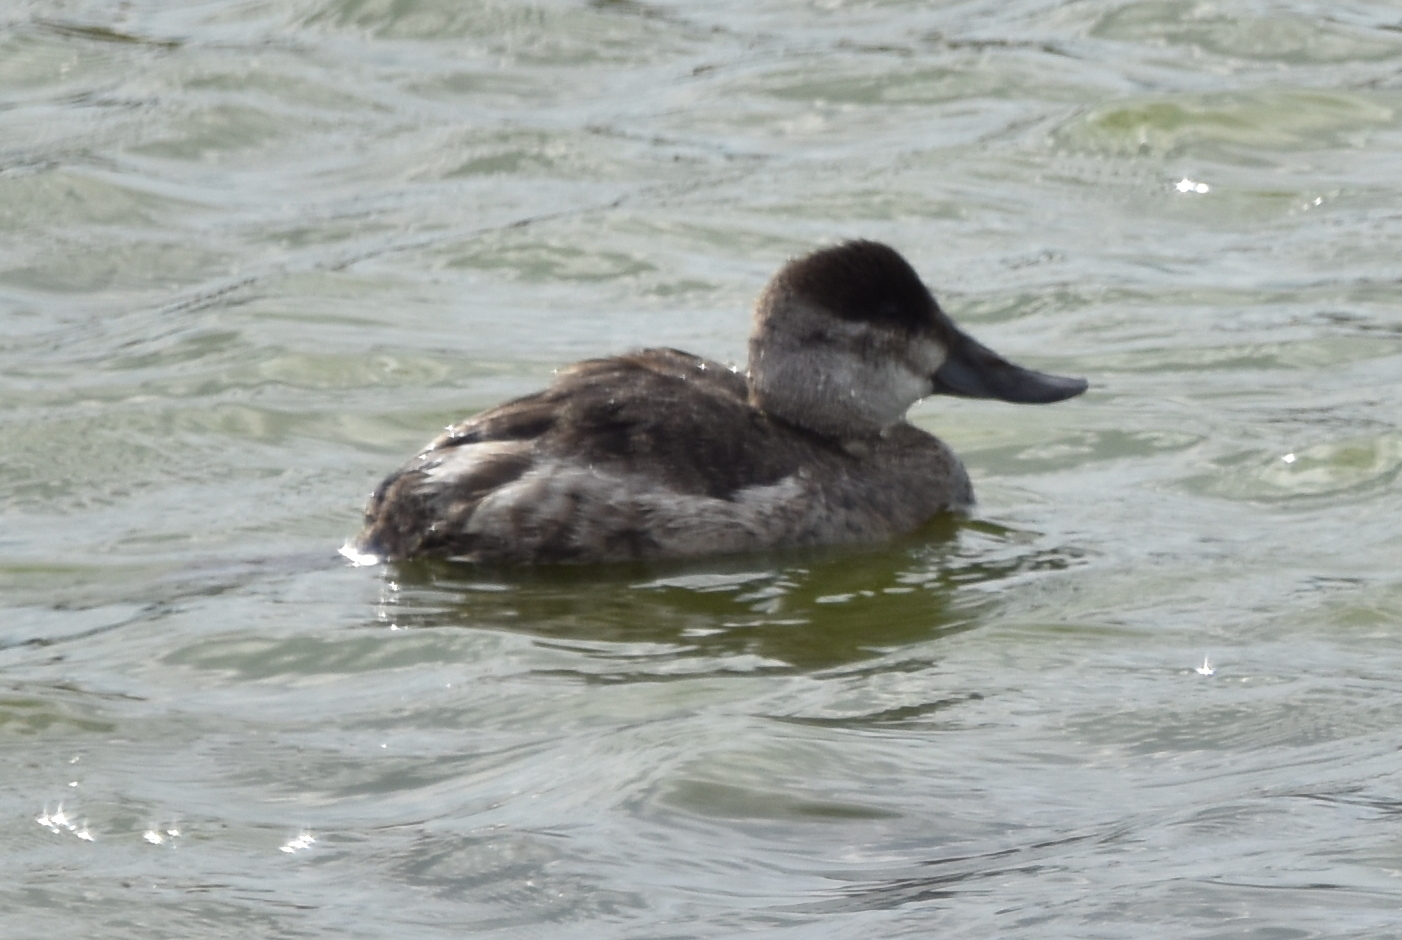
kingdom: Animalia
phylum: Chordata
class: Aves
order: Anseriformes
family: Anatidae
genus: Oxyura
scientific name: Oxyura jamaicensis
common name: Ruddy duck
